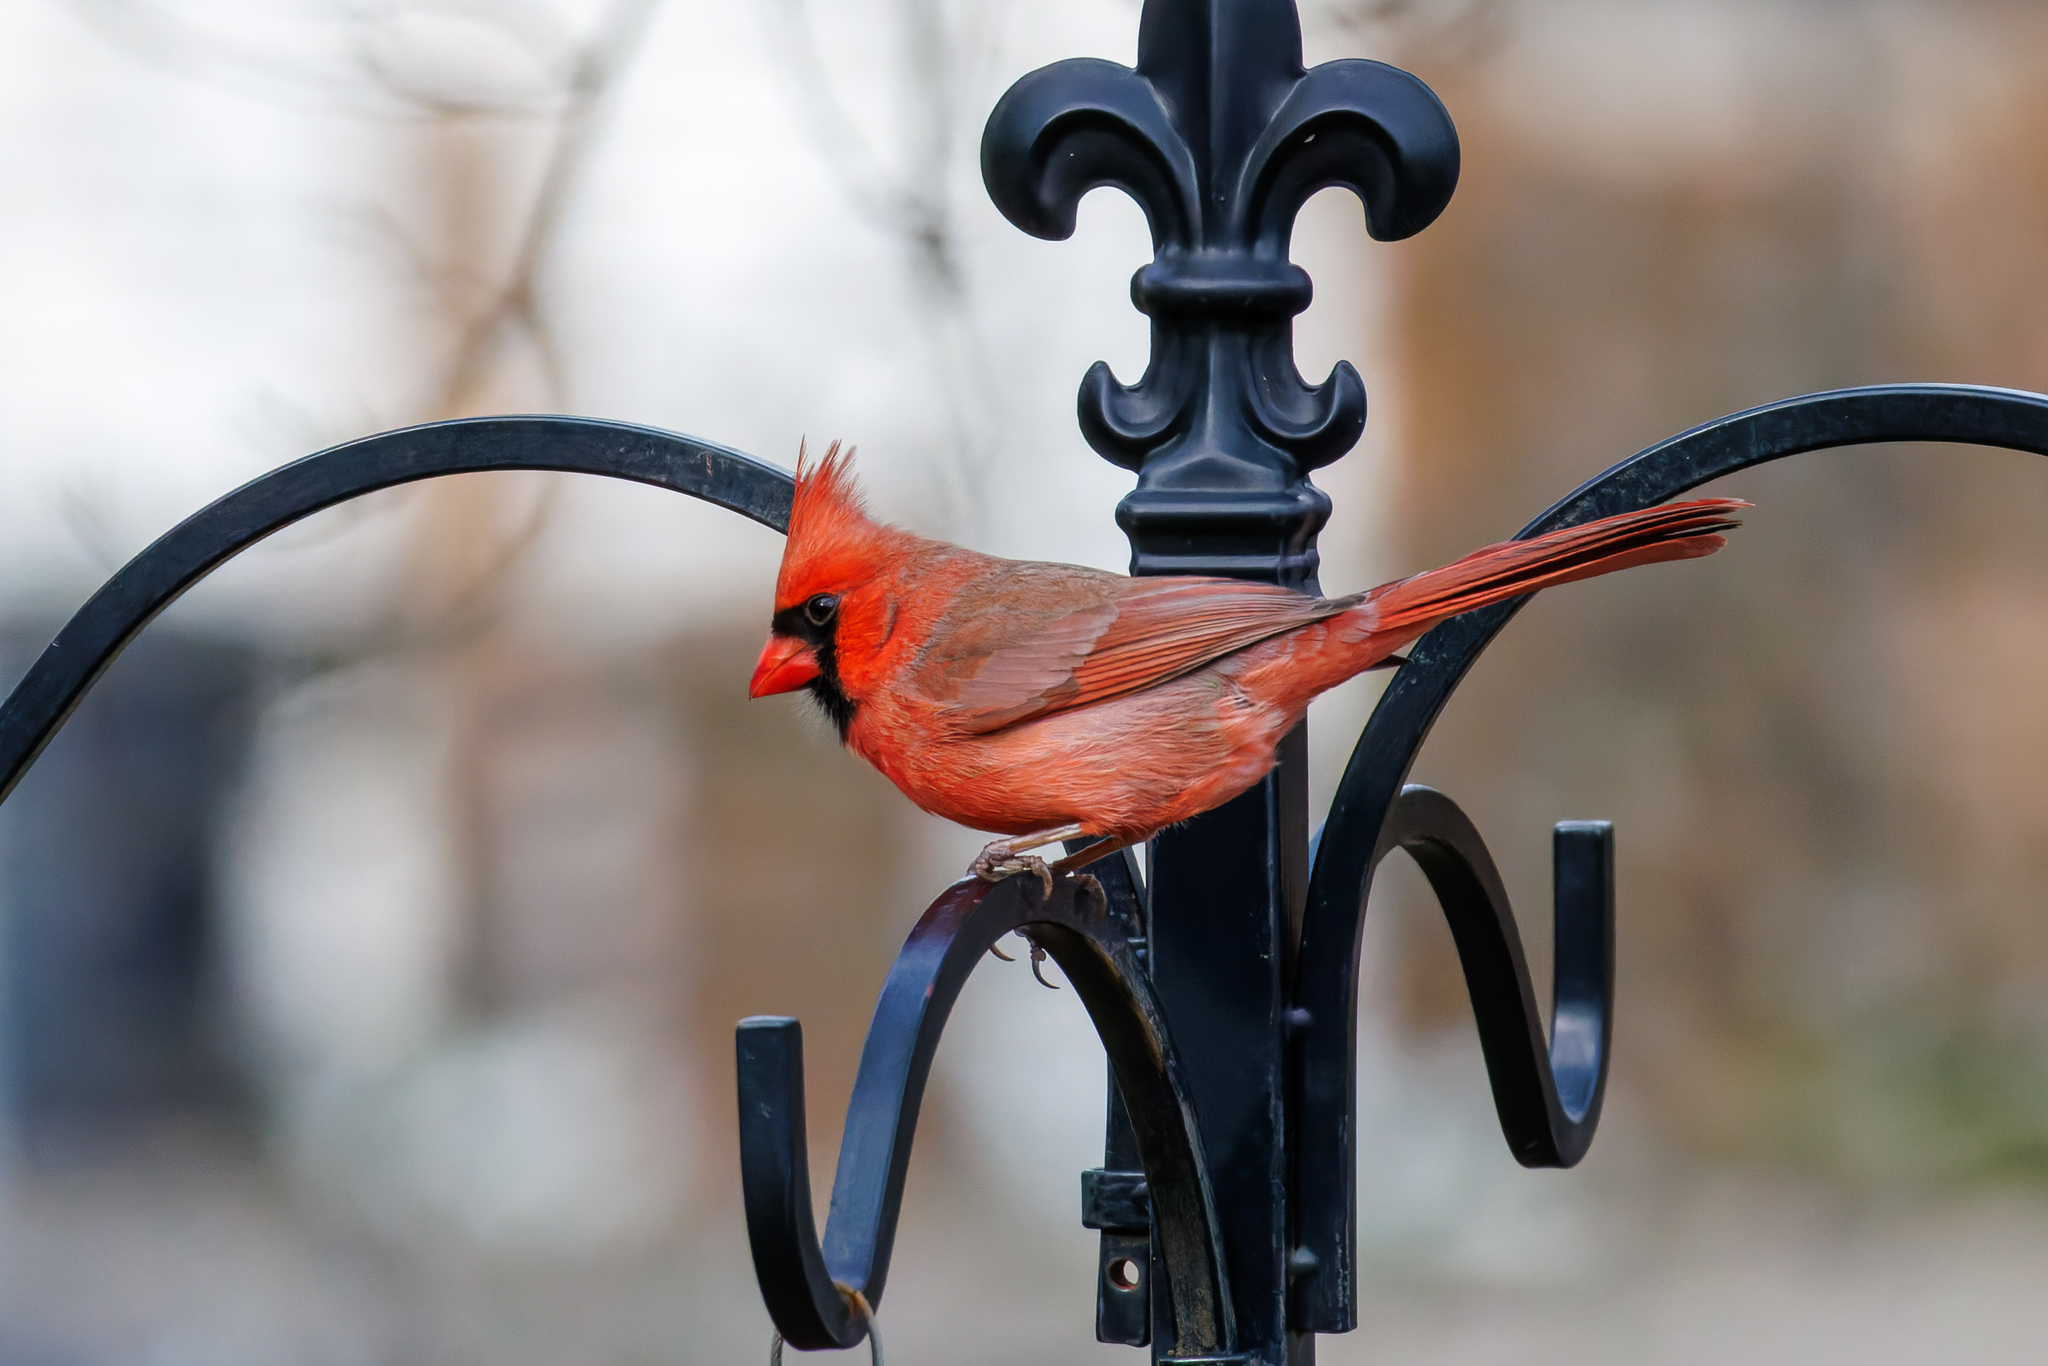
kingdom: Animalia
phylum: Chordata
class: Aves
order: Passeriformes
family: Cardinalidae
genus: Cardinalis
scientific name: Cardinalis cardinalis
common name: Northern cardinal
